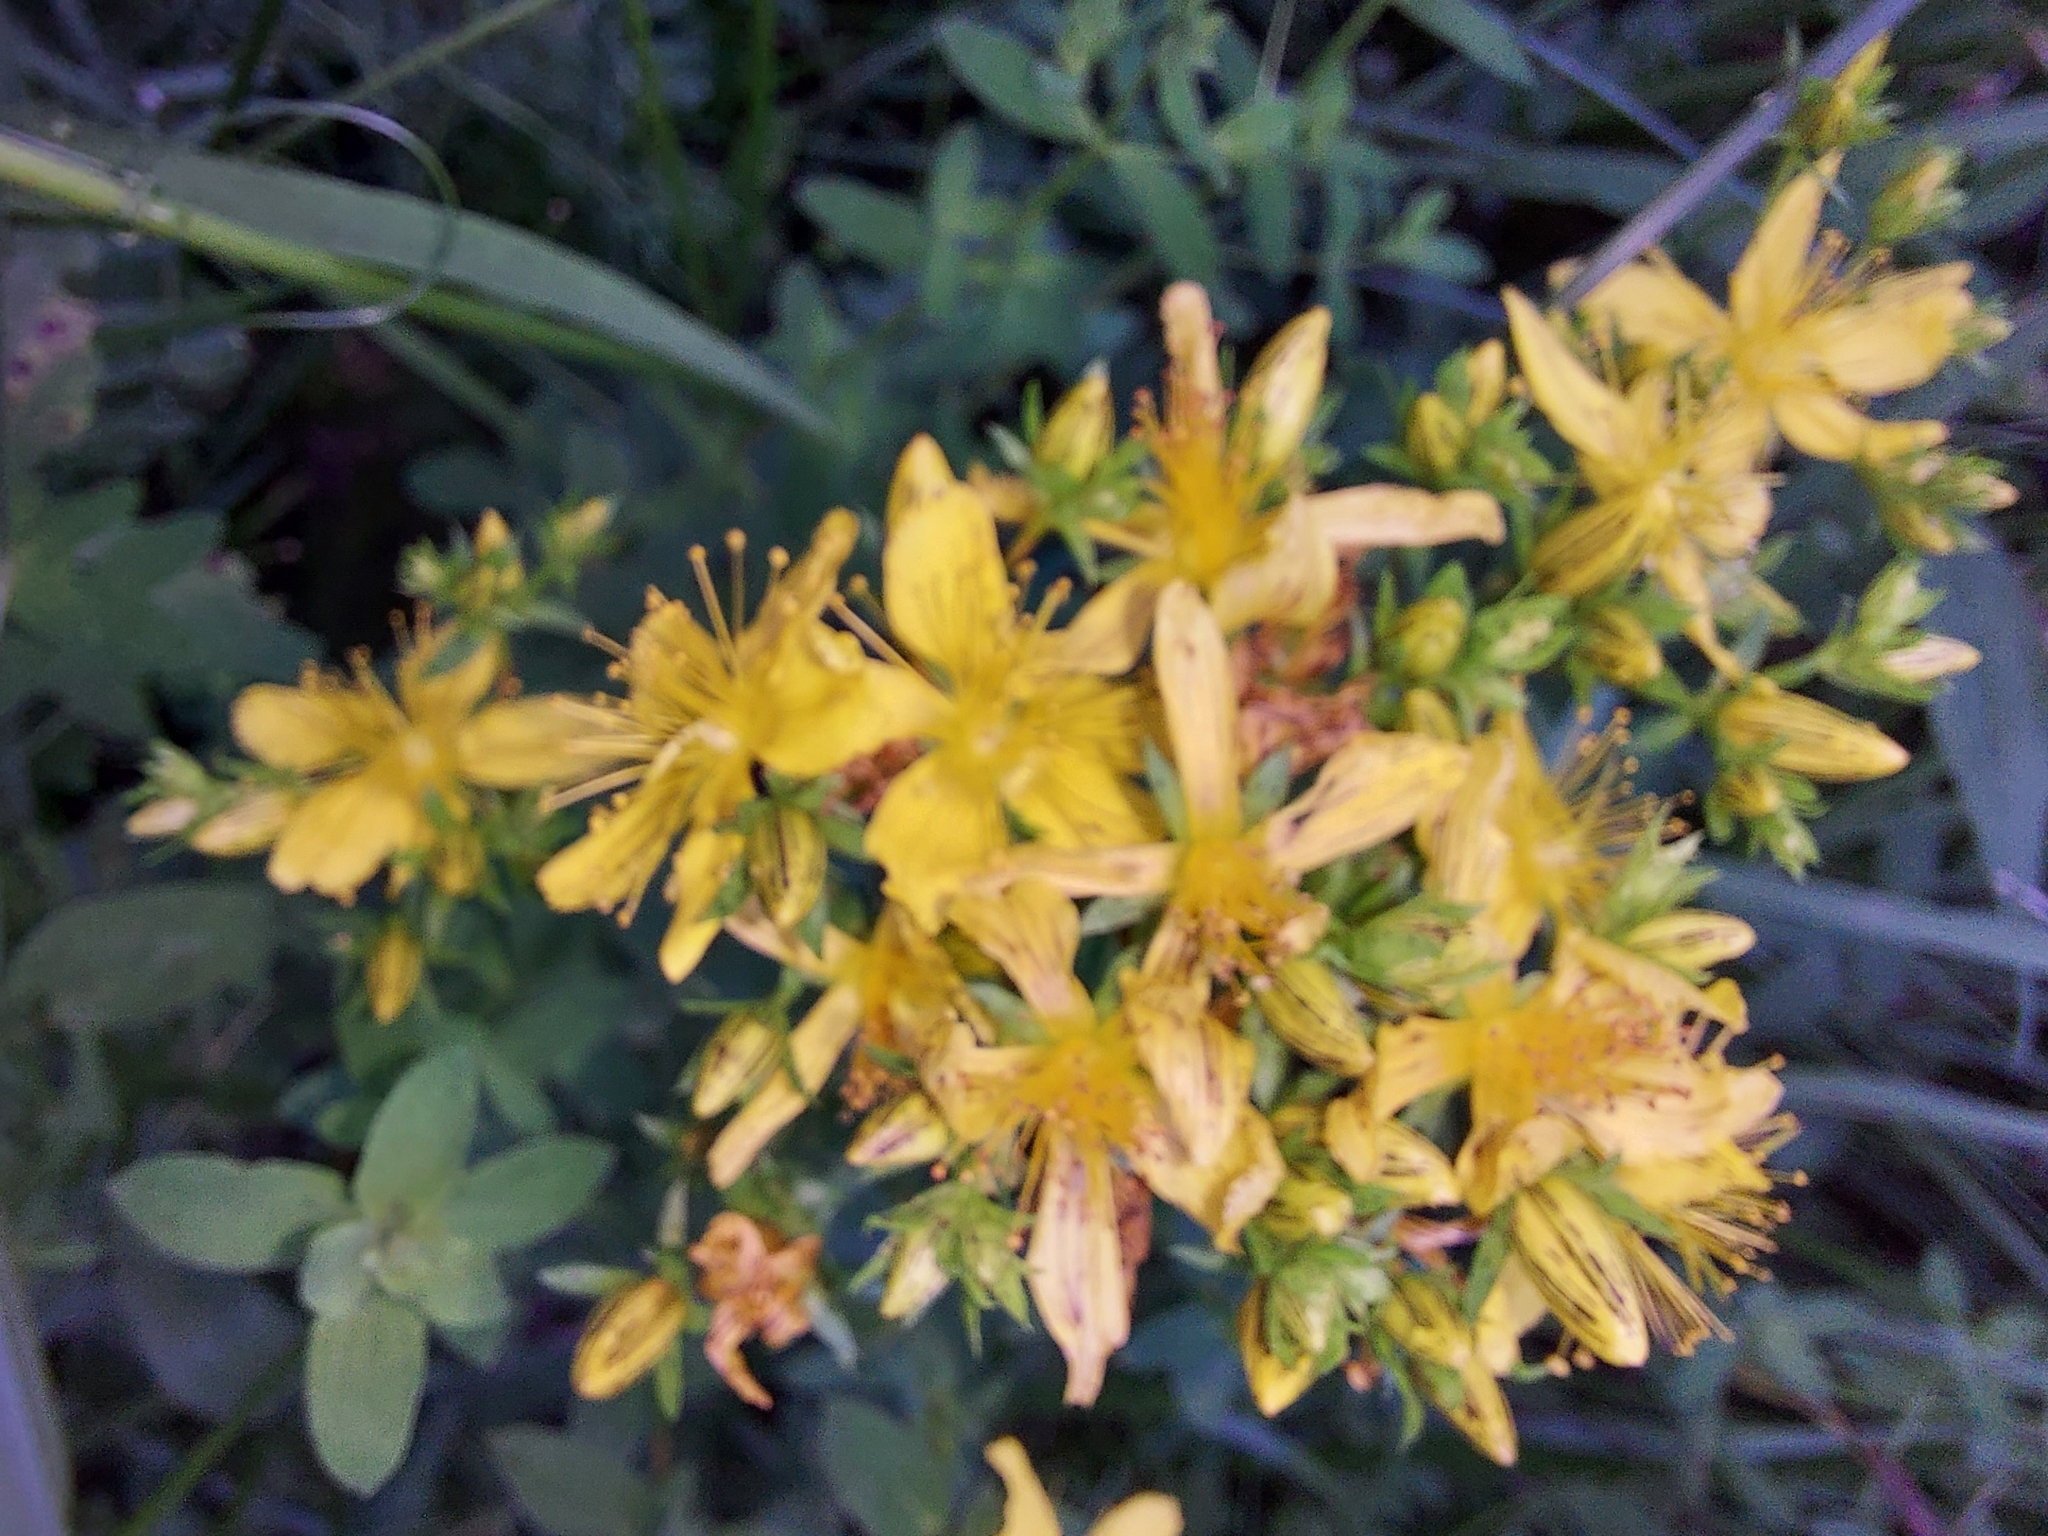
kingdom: Plantae
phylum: Tracheophyta
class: Magnoliopsida
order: Malpighiales
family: Hypericaceae
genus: Hypericum
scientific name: Hypericum perforatum
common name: Common st. johnswort
